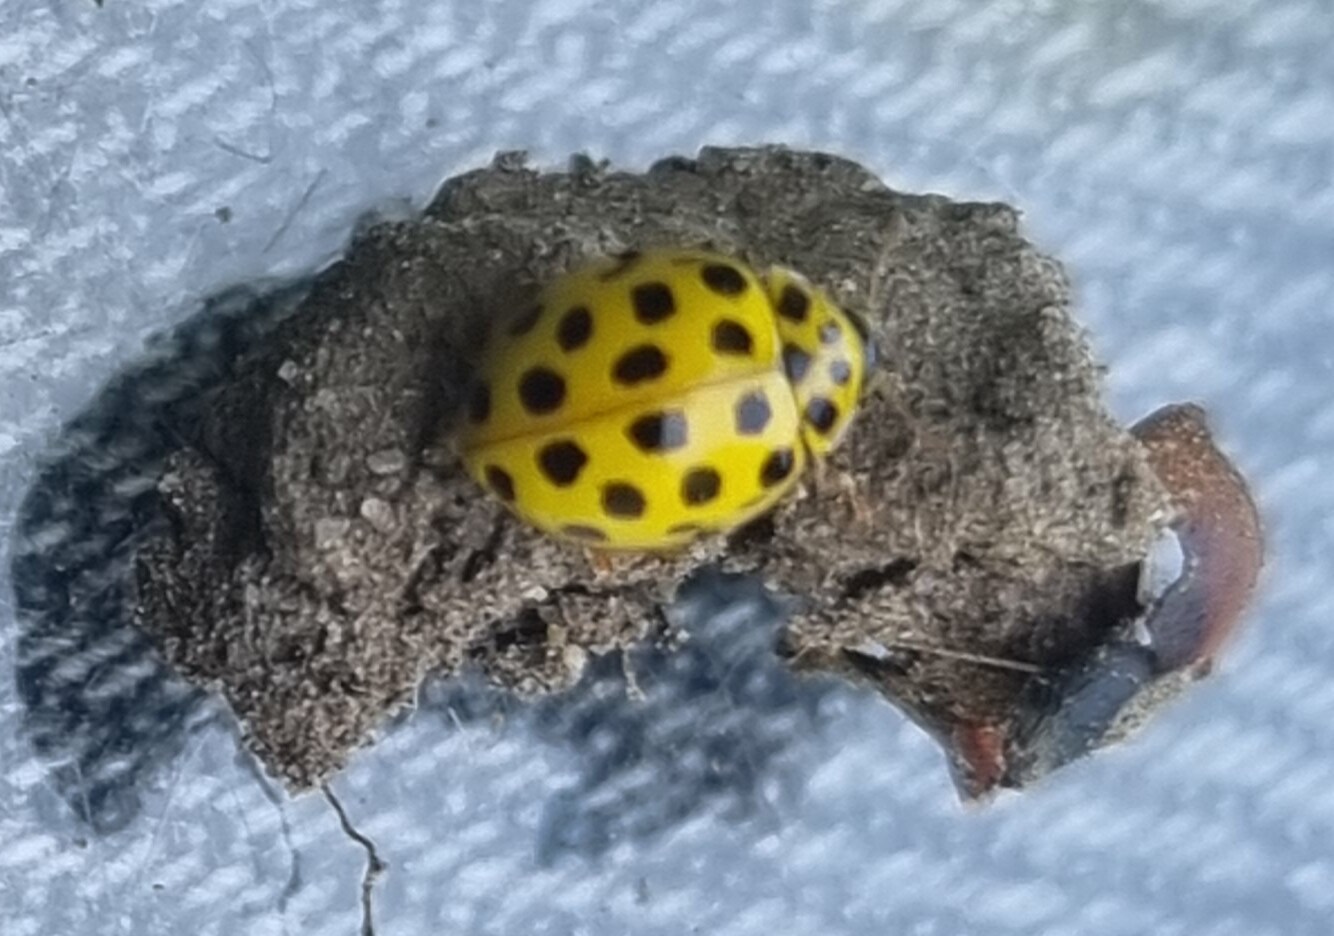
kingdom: Animalia
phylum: Arthropoda
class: Insecta
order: Coleoptera
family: Coccinellidae
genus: Psyllobora
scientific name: Psyllobora vigintiduopunctata
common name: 22-spot ladybird
